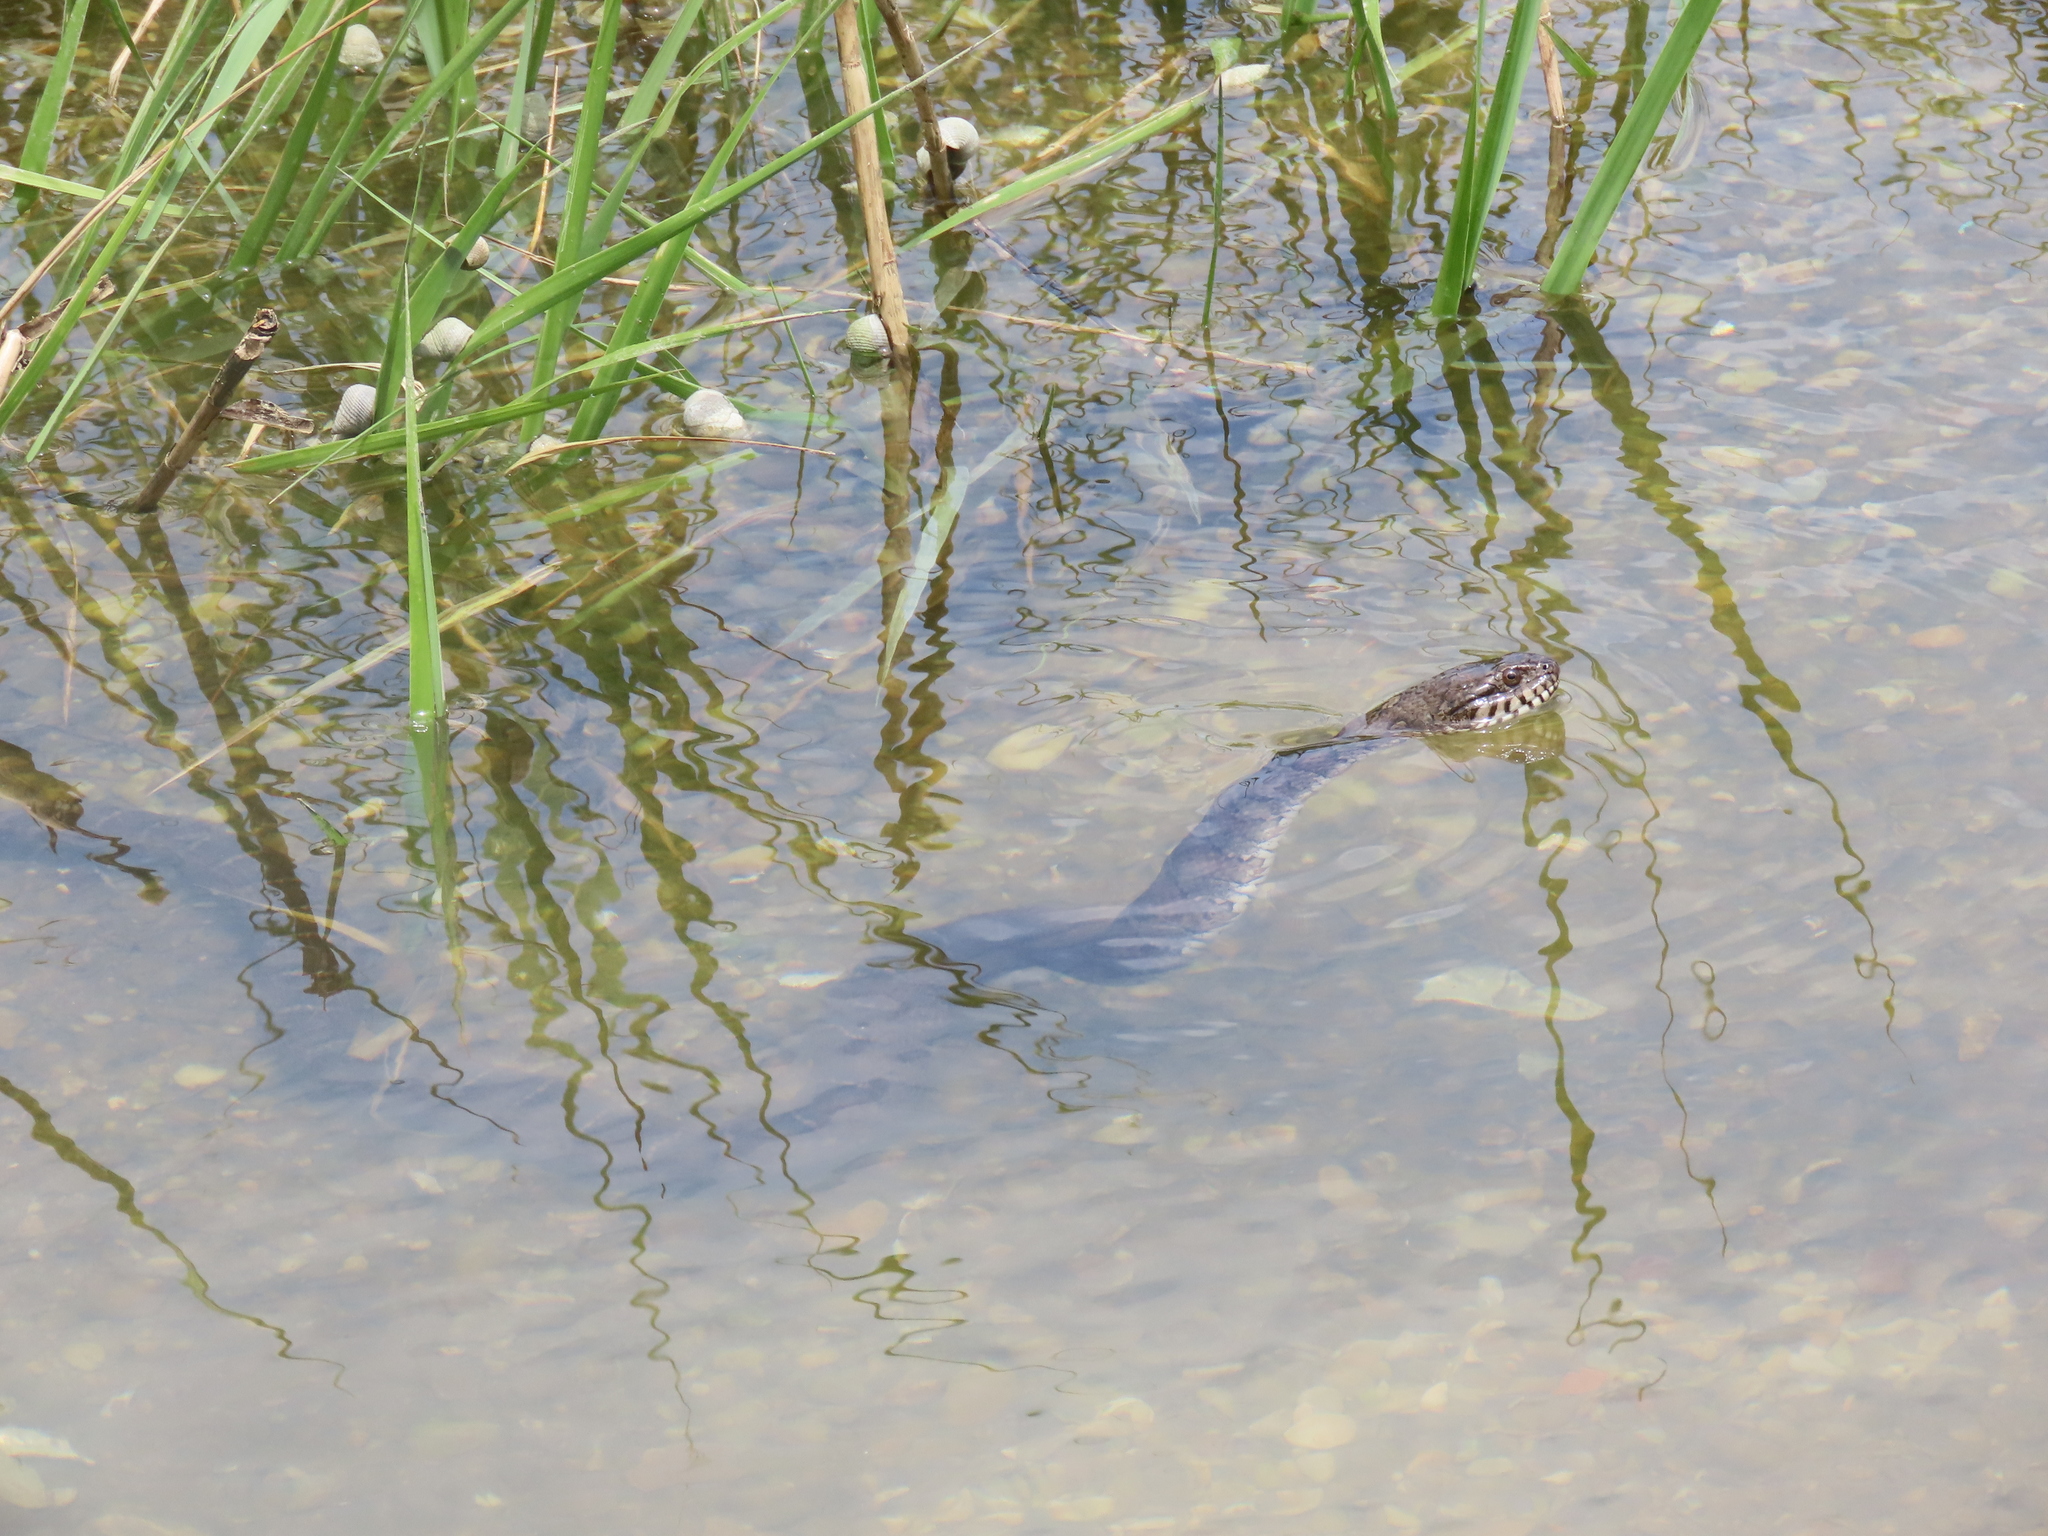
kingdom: Animalia
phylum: Chordata
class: Squamata
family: Colubridae
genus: Nerodia
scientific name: Nerodia sipedon
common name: Northern water snake
